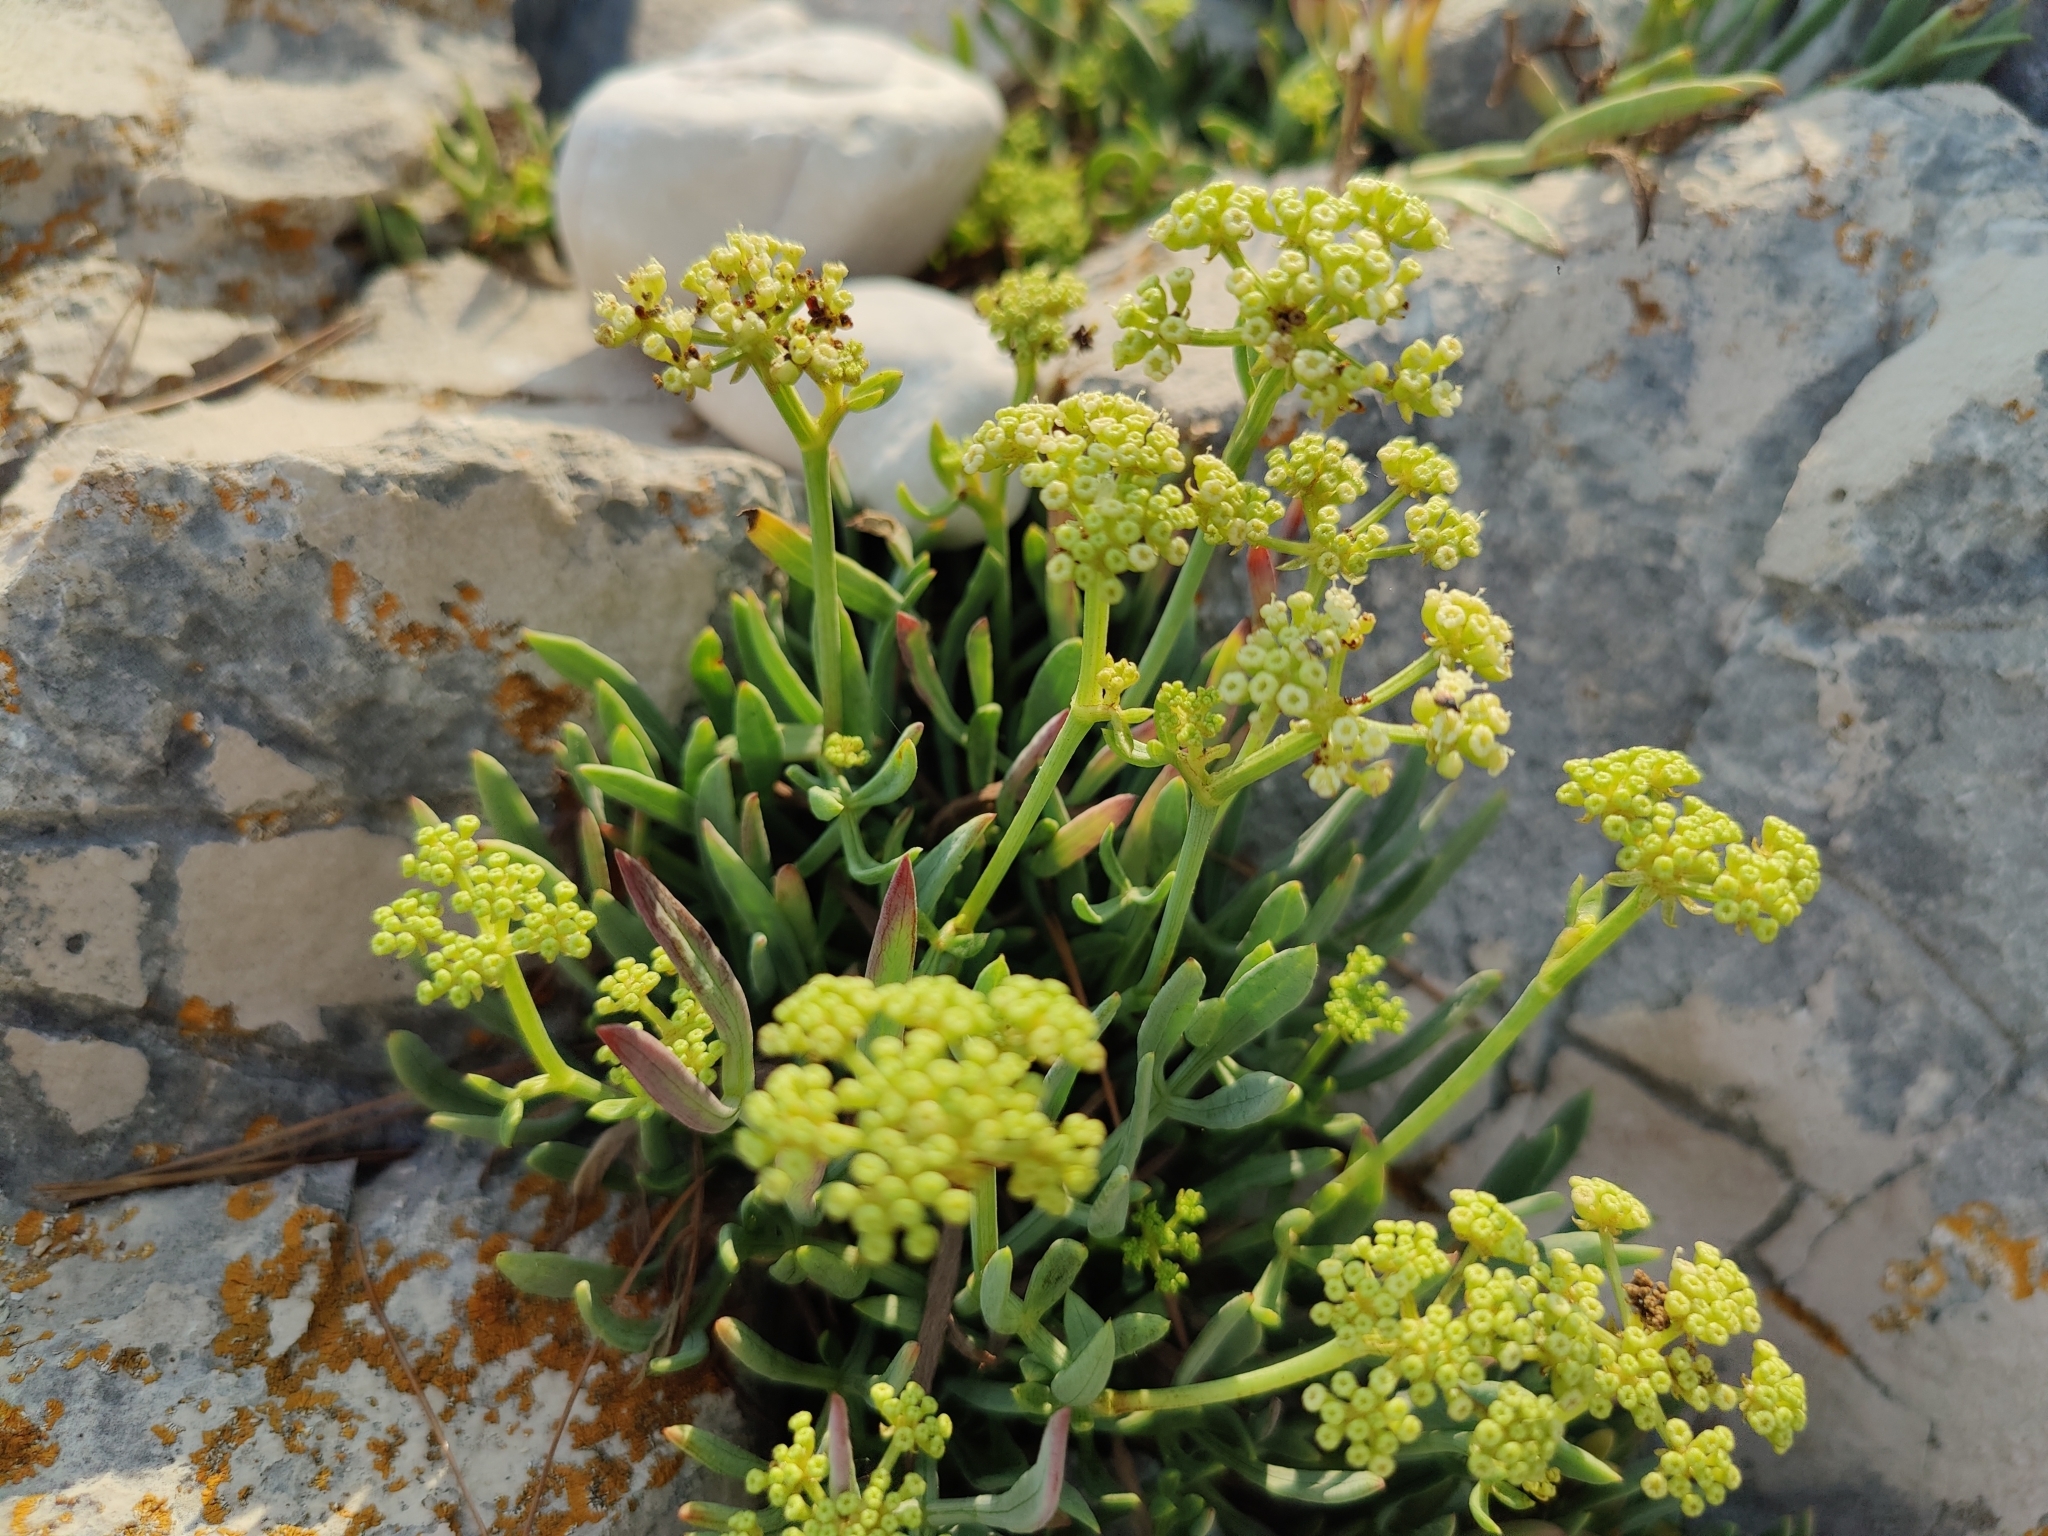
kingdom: Plantae
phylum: Tracheophyta
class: Magnoliopsida
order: Apiales
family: Apiaceae
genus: Crithmum
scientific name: Crithmum maritimum
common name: Rock samphire
